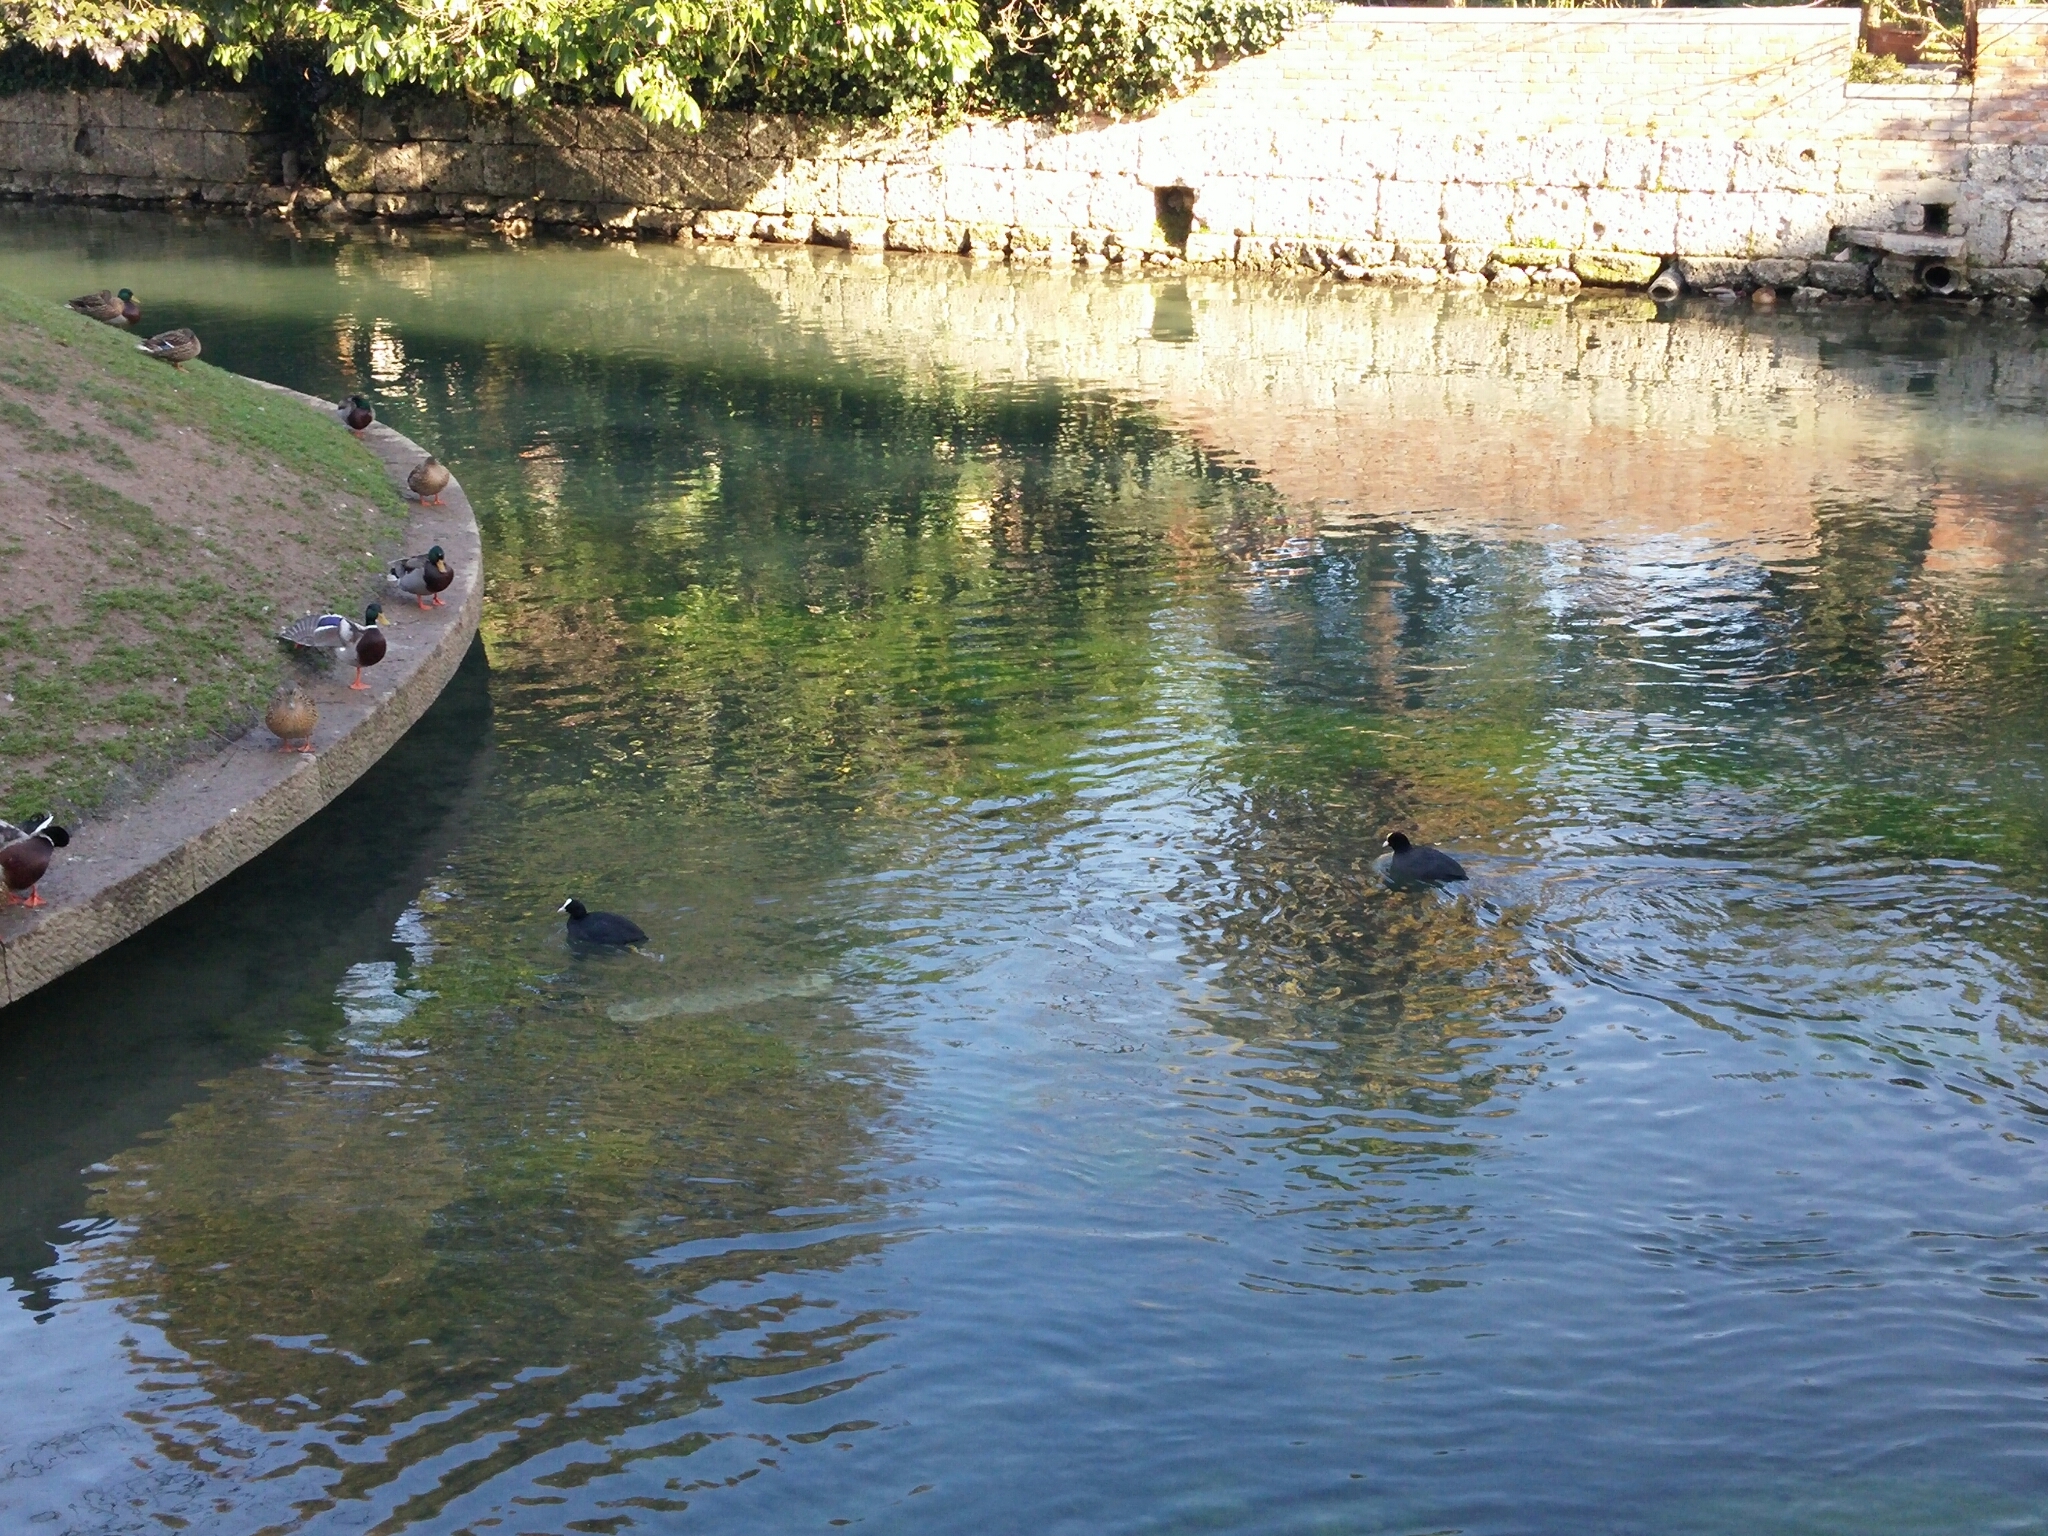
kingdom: Animalia
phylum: Chordata
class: Aves
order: Gruiformes
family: Rallidae
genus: Fulica
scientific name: Fulica atra
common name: Eurasian coot
